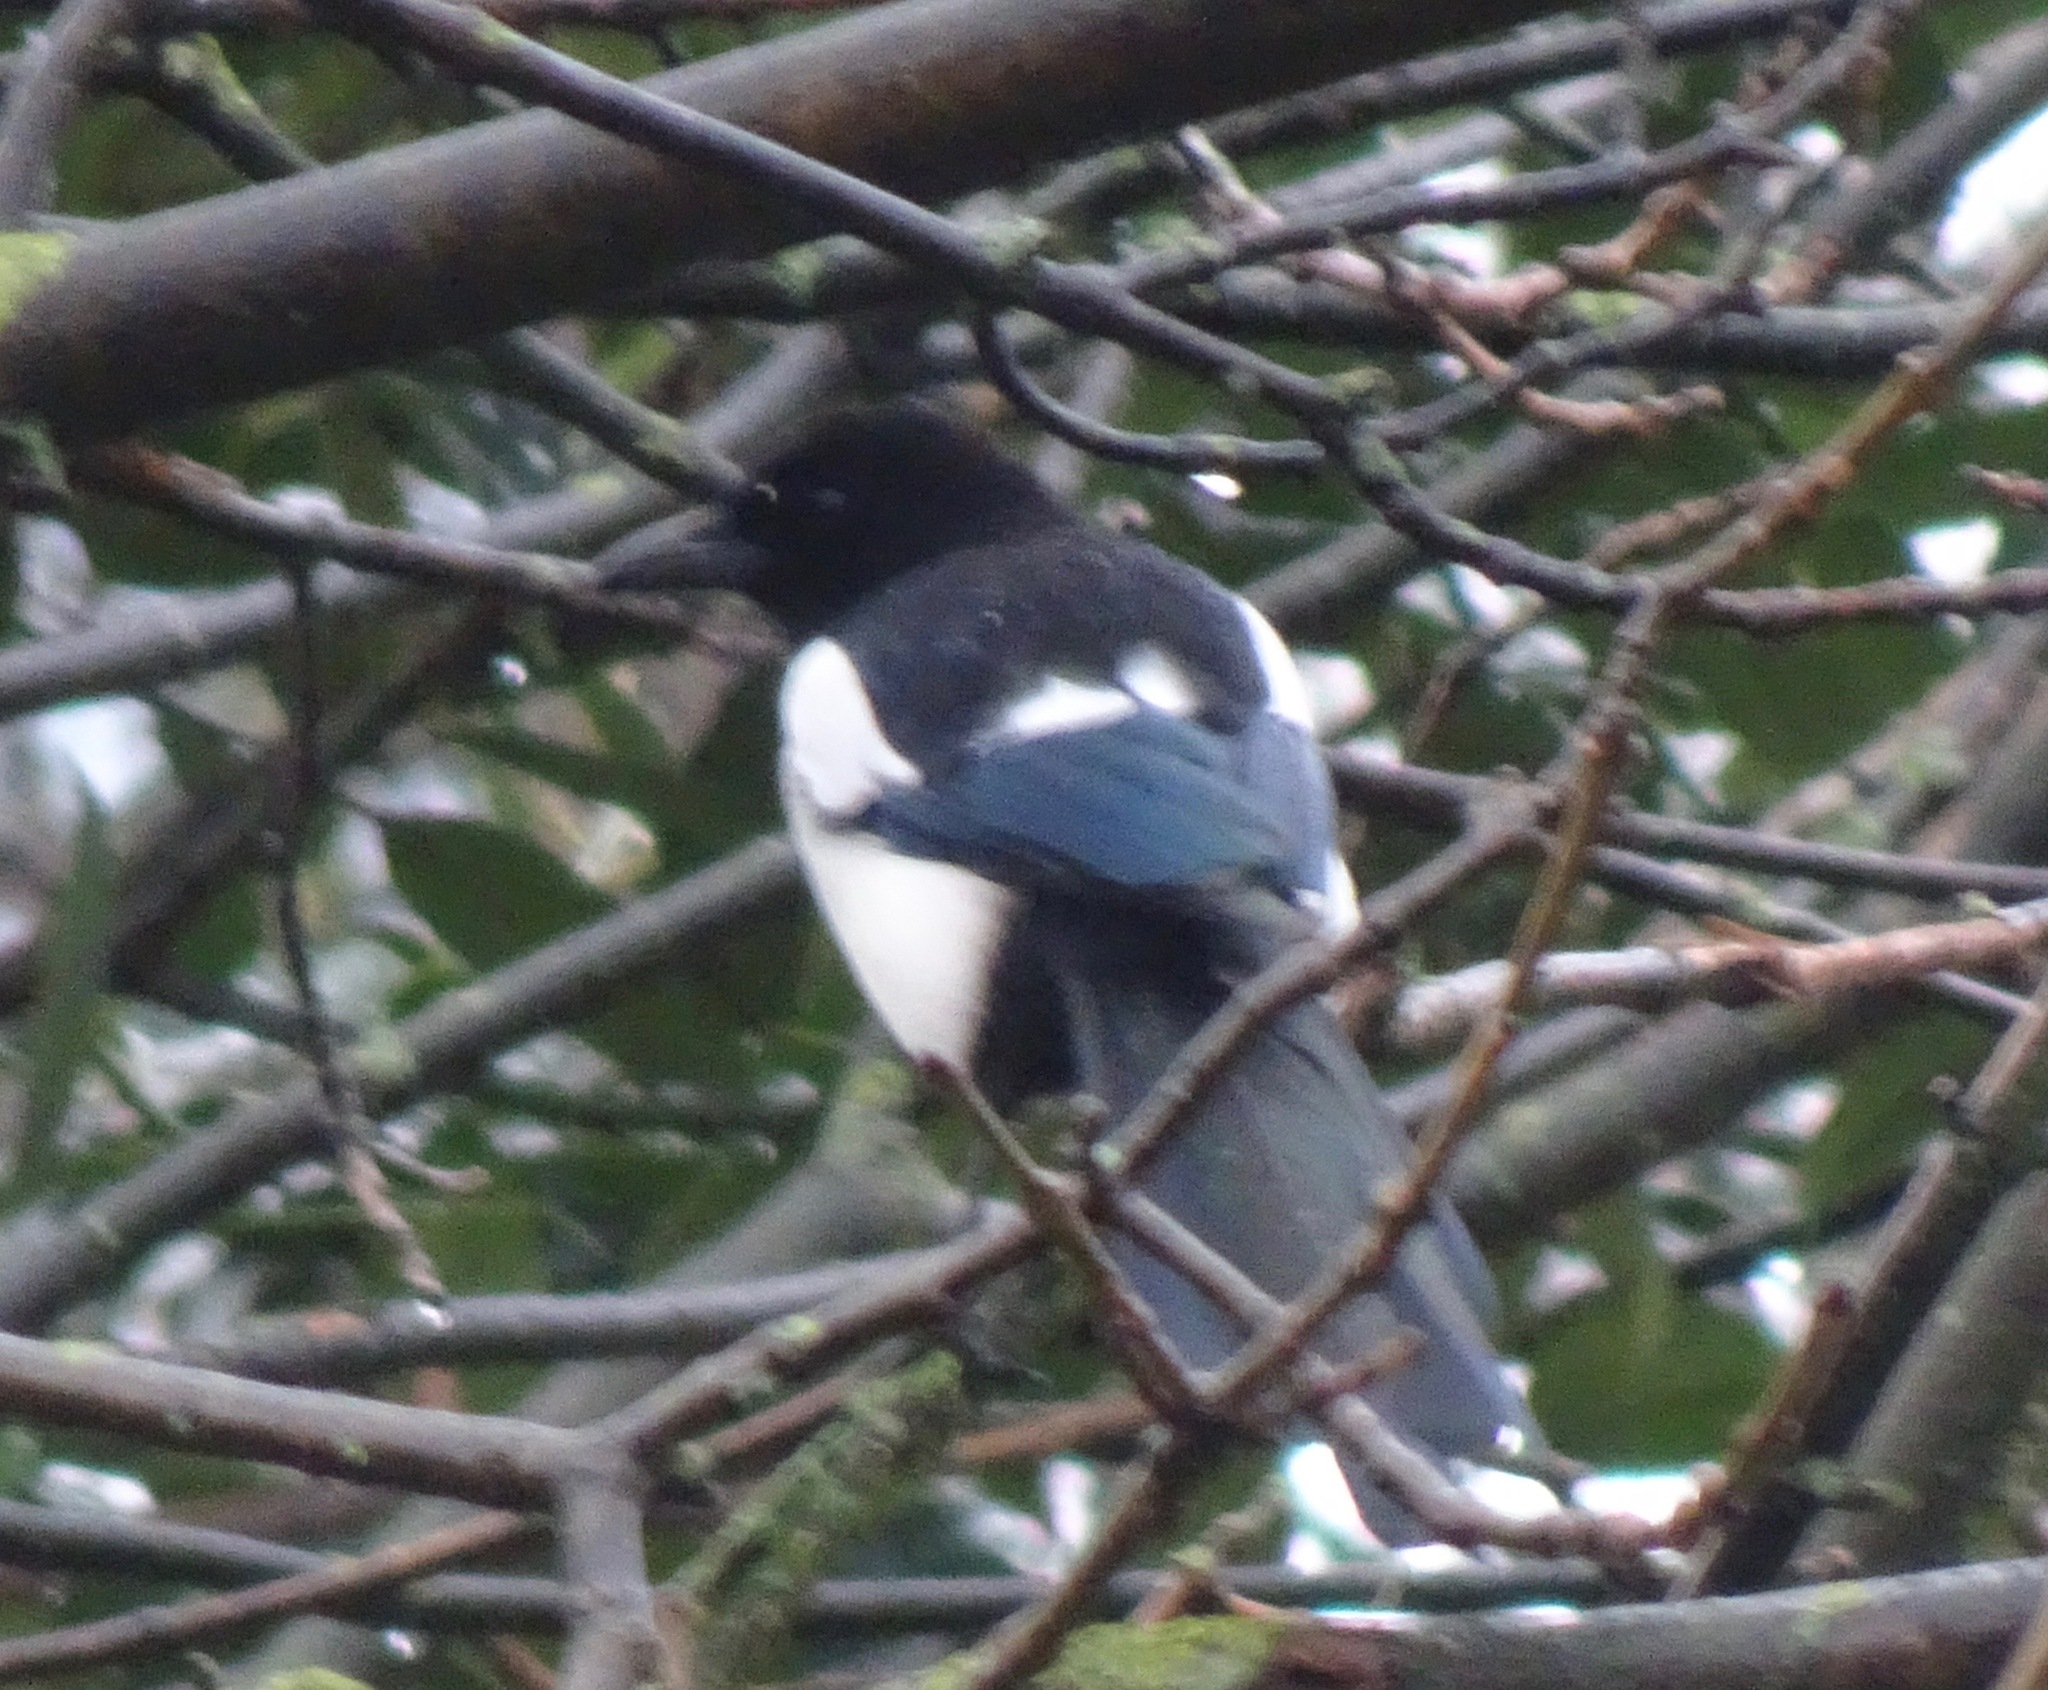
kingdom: Animalia
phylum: Chordata
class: Aves
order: Passeriformes
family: Corvidae
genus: Pica
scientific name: Pica pica
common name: Eurasian magpie
